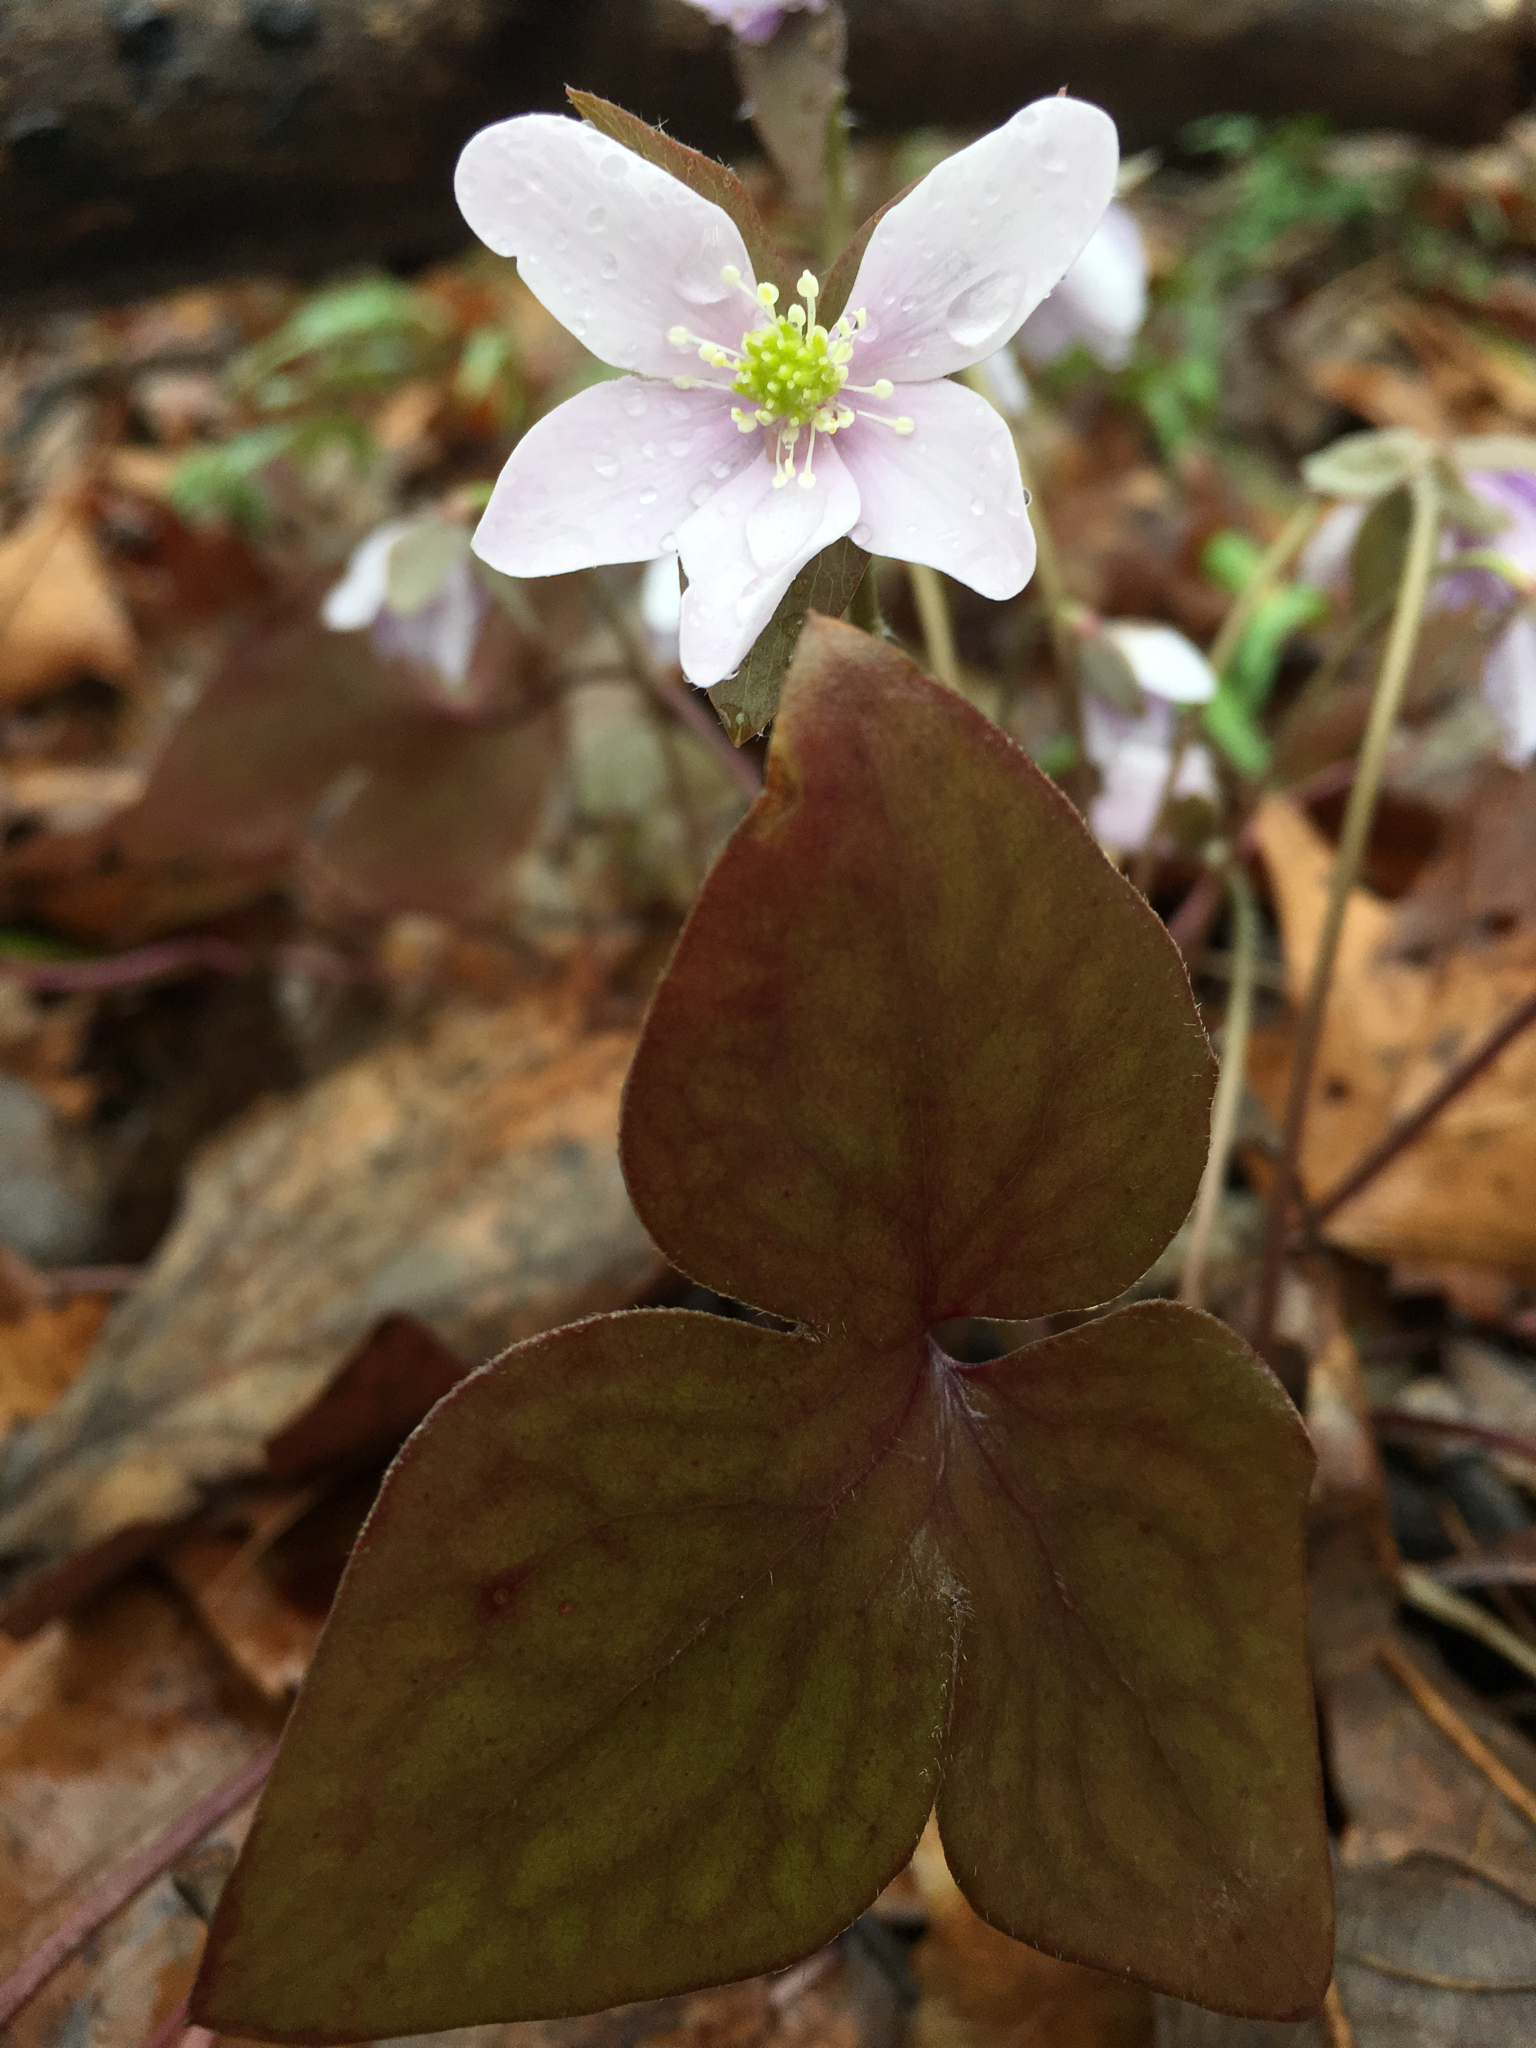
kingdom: Plantae
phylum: Tracheophyta
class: Magnoliopsida
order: Ranunculales
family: Ranunculaceae
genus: Hepatica
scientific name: Hepatica acutiloba
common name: Sharp-lobed hepatica
